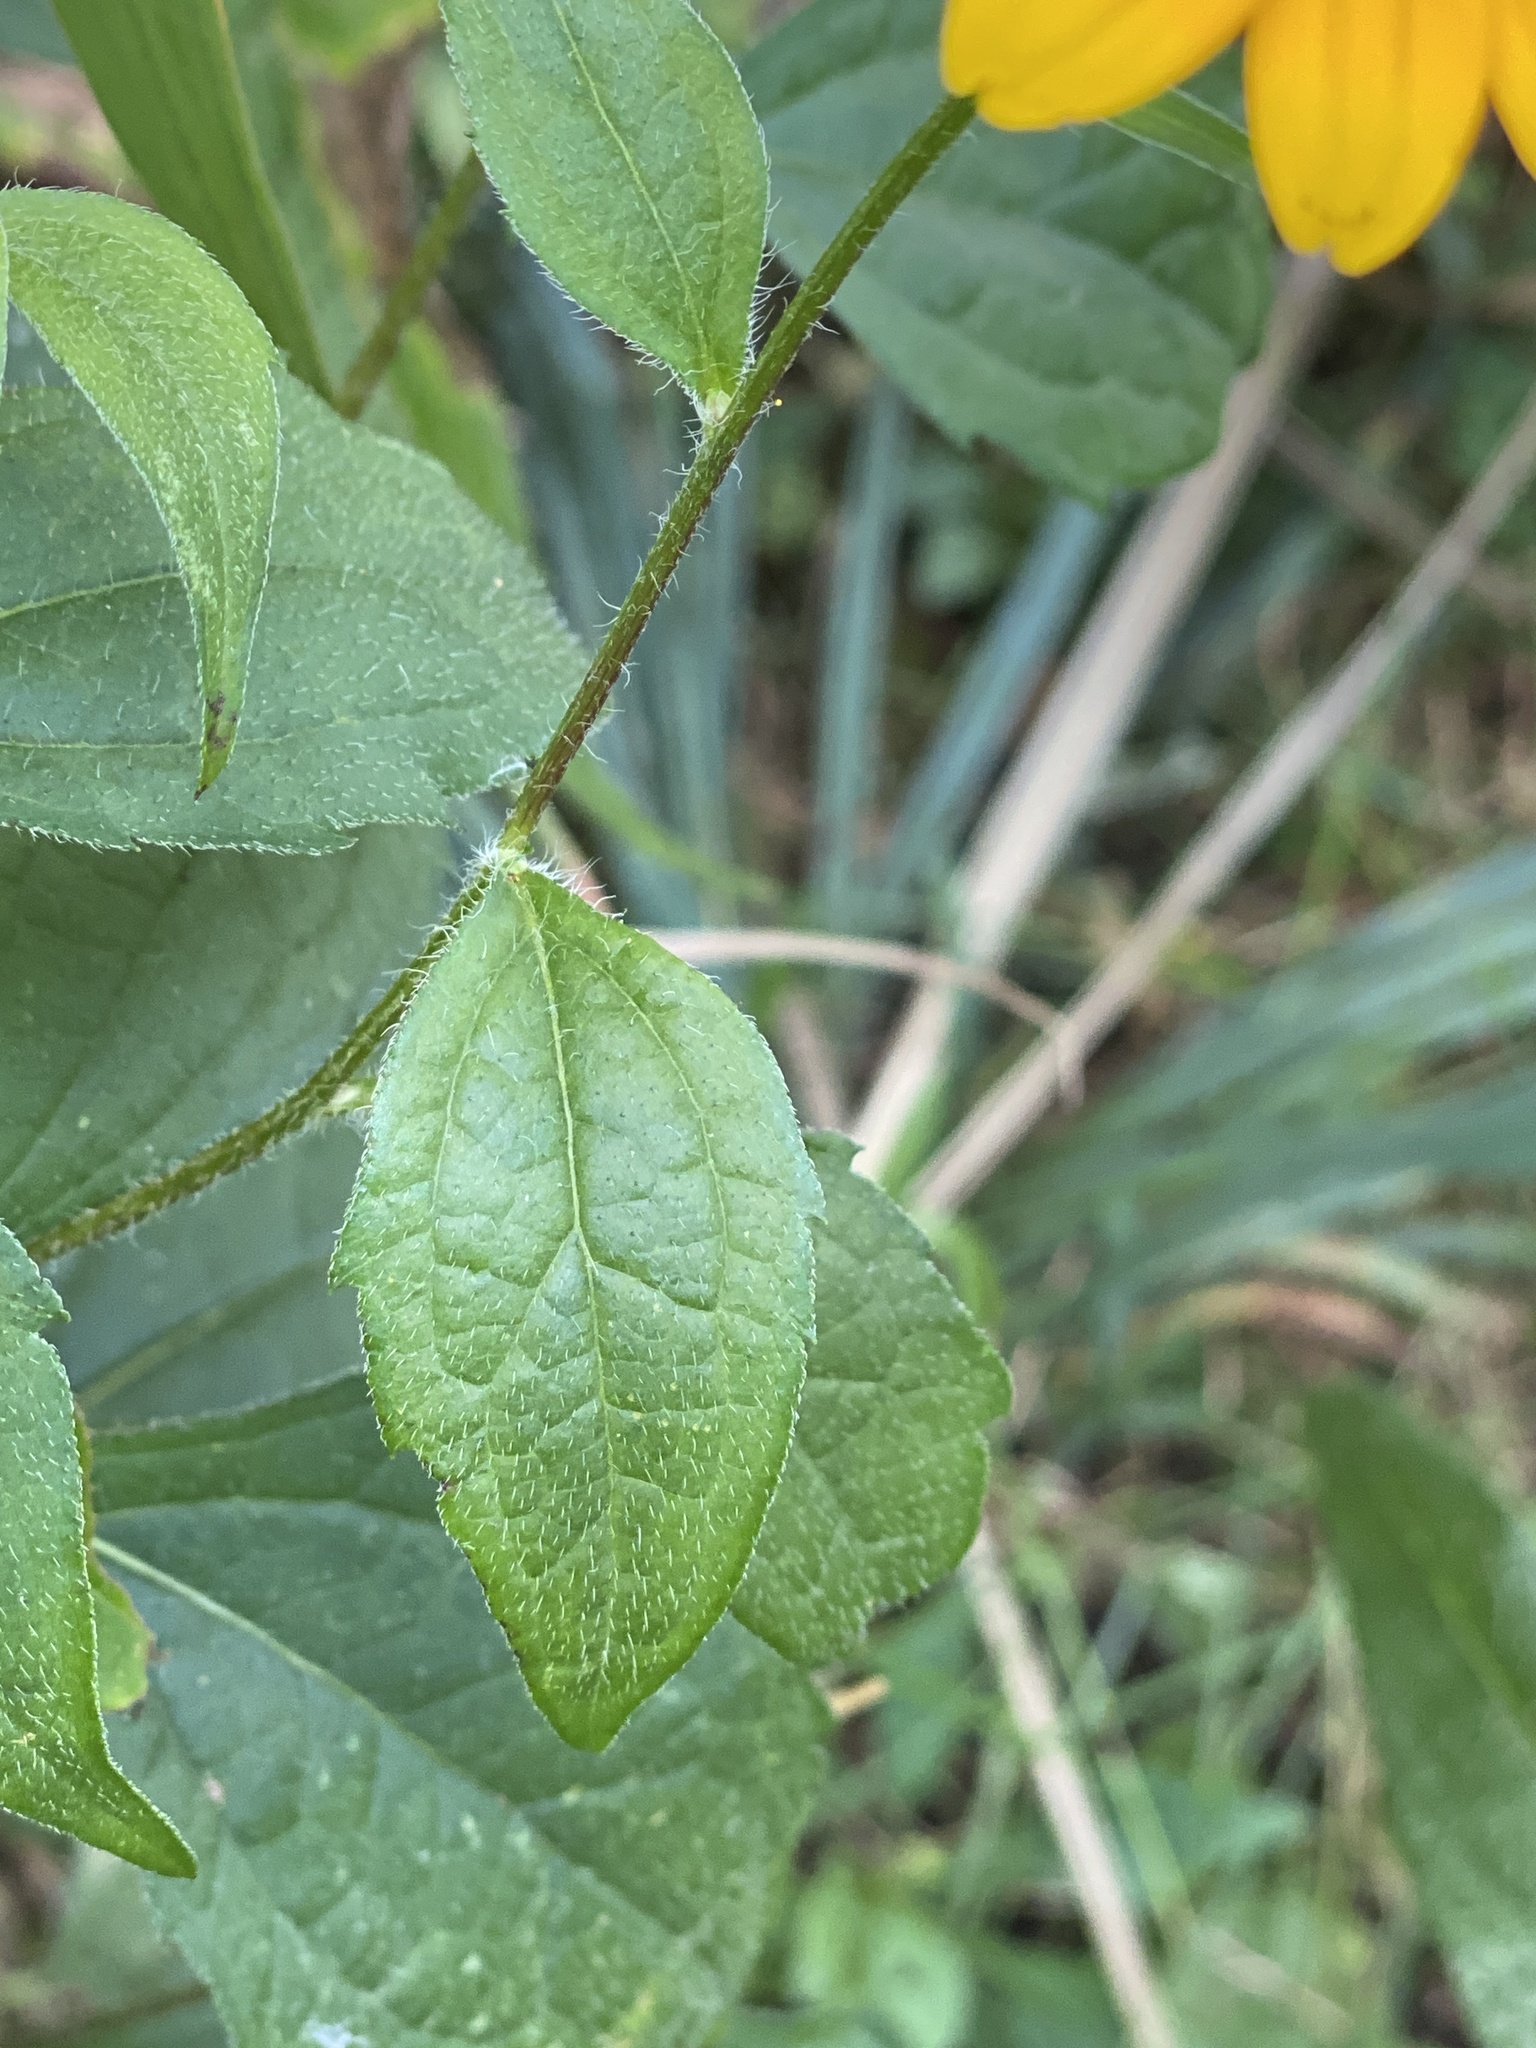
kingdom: Plantae
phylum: Tracheophyta
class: Magnoliopsida
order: Asterales
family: Asteraceae
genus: Rudbeckia
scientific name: Rudbeckia triloba
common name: Thin-leaved coneflower
